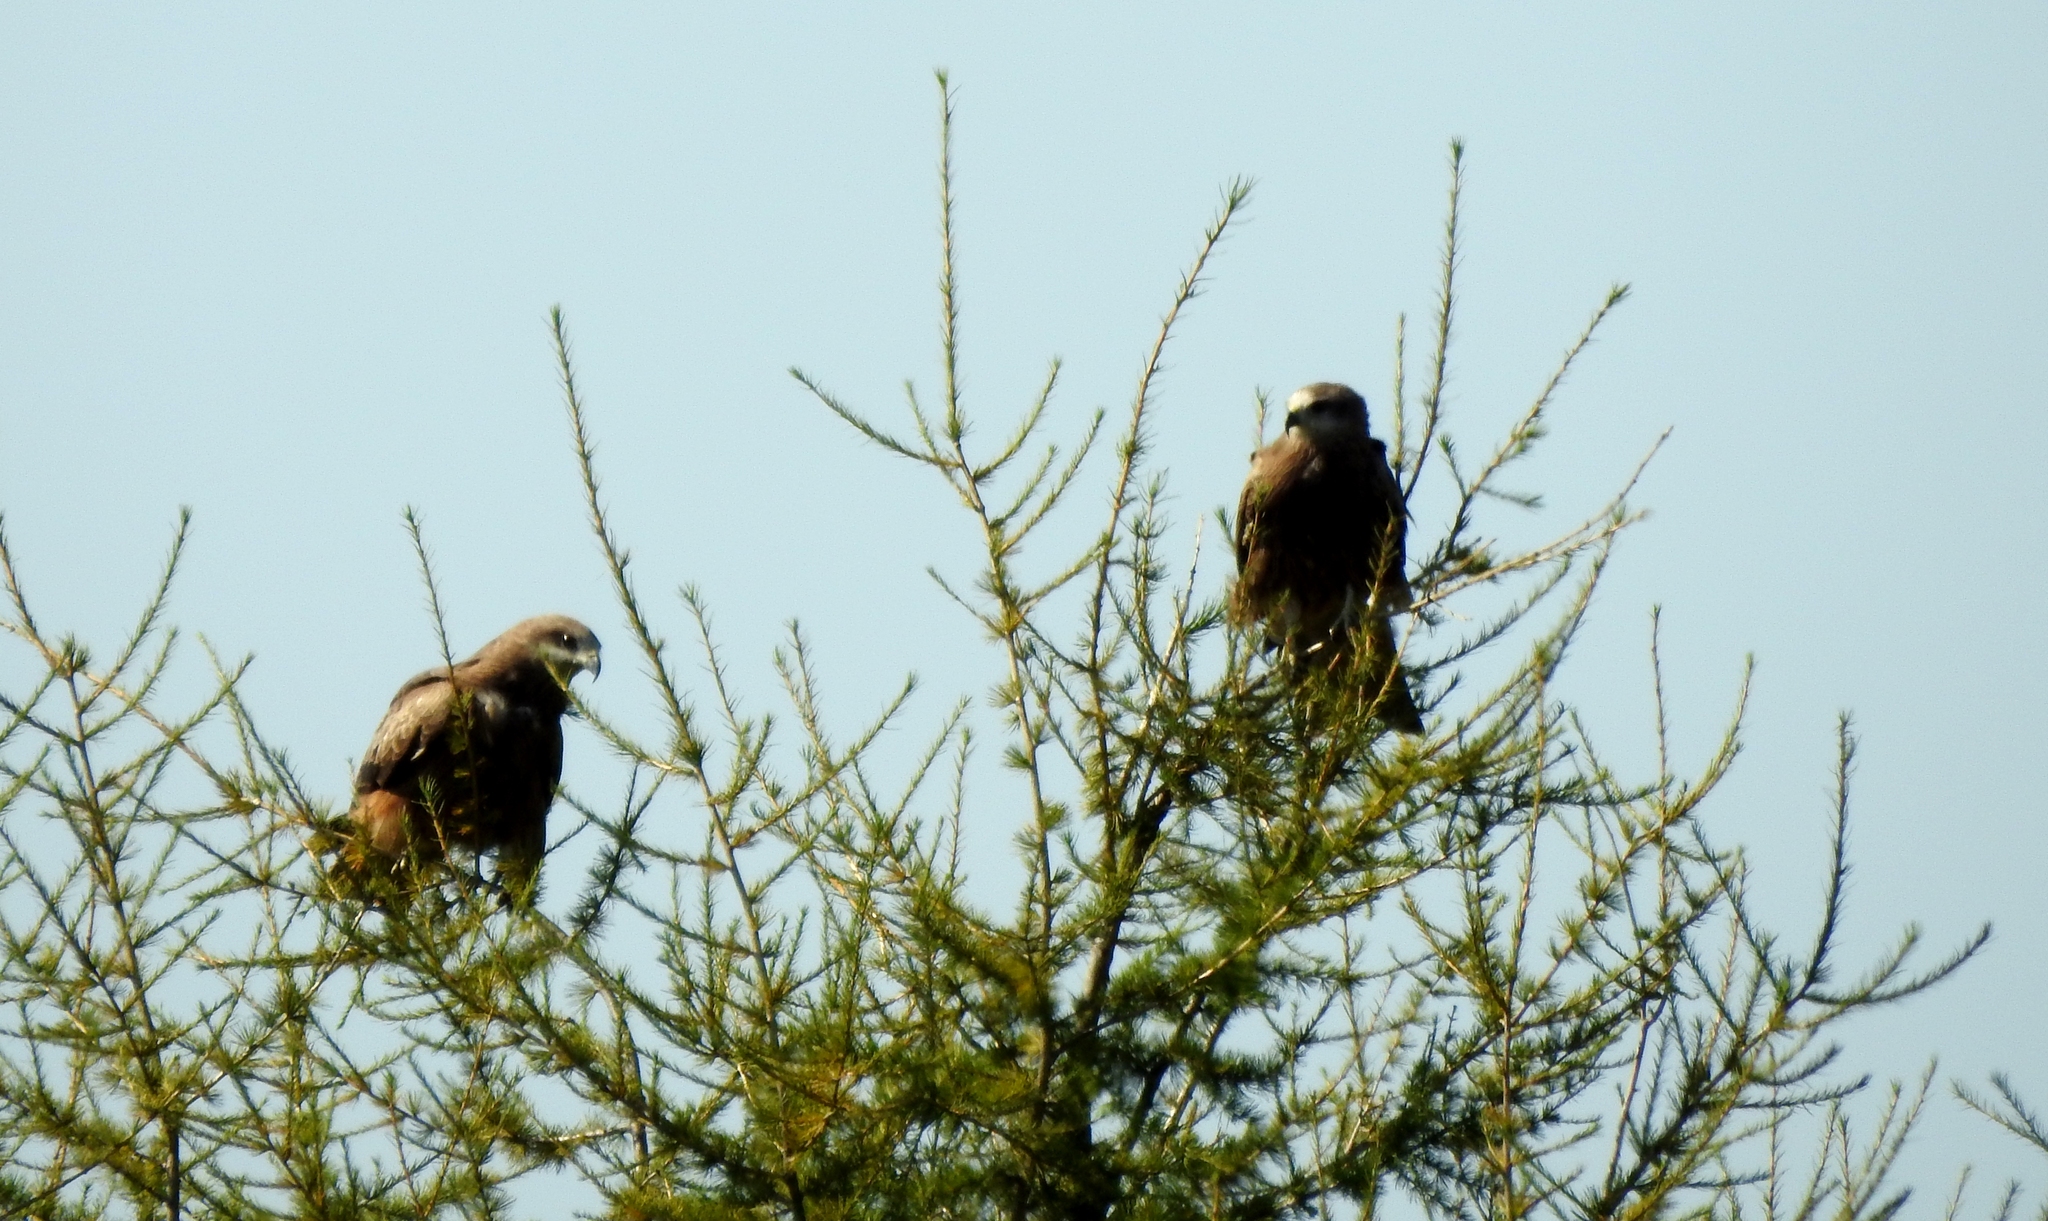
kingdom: Animalia
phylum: Chordata
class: Aves
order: Accipitriformes
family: Accipitridae
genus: Milvus
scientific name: Milvus migrans
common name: Black kite
